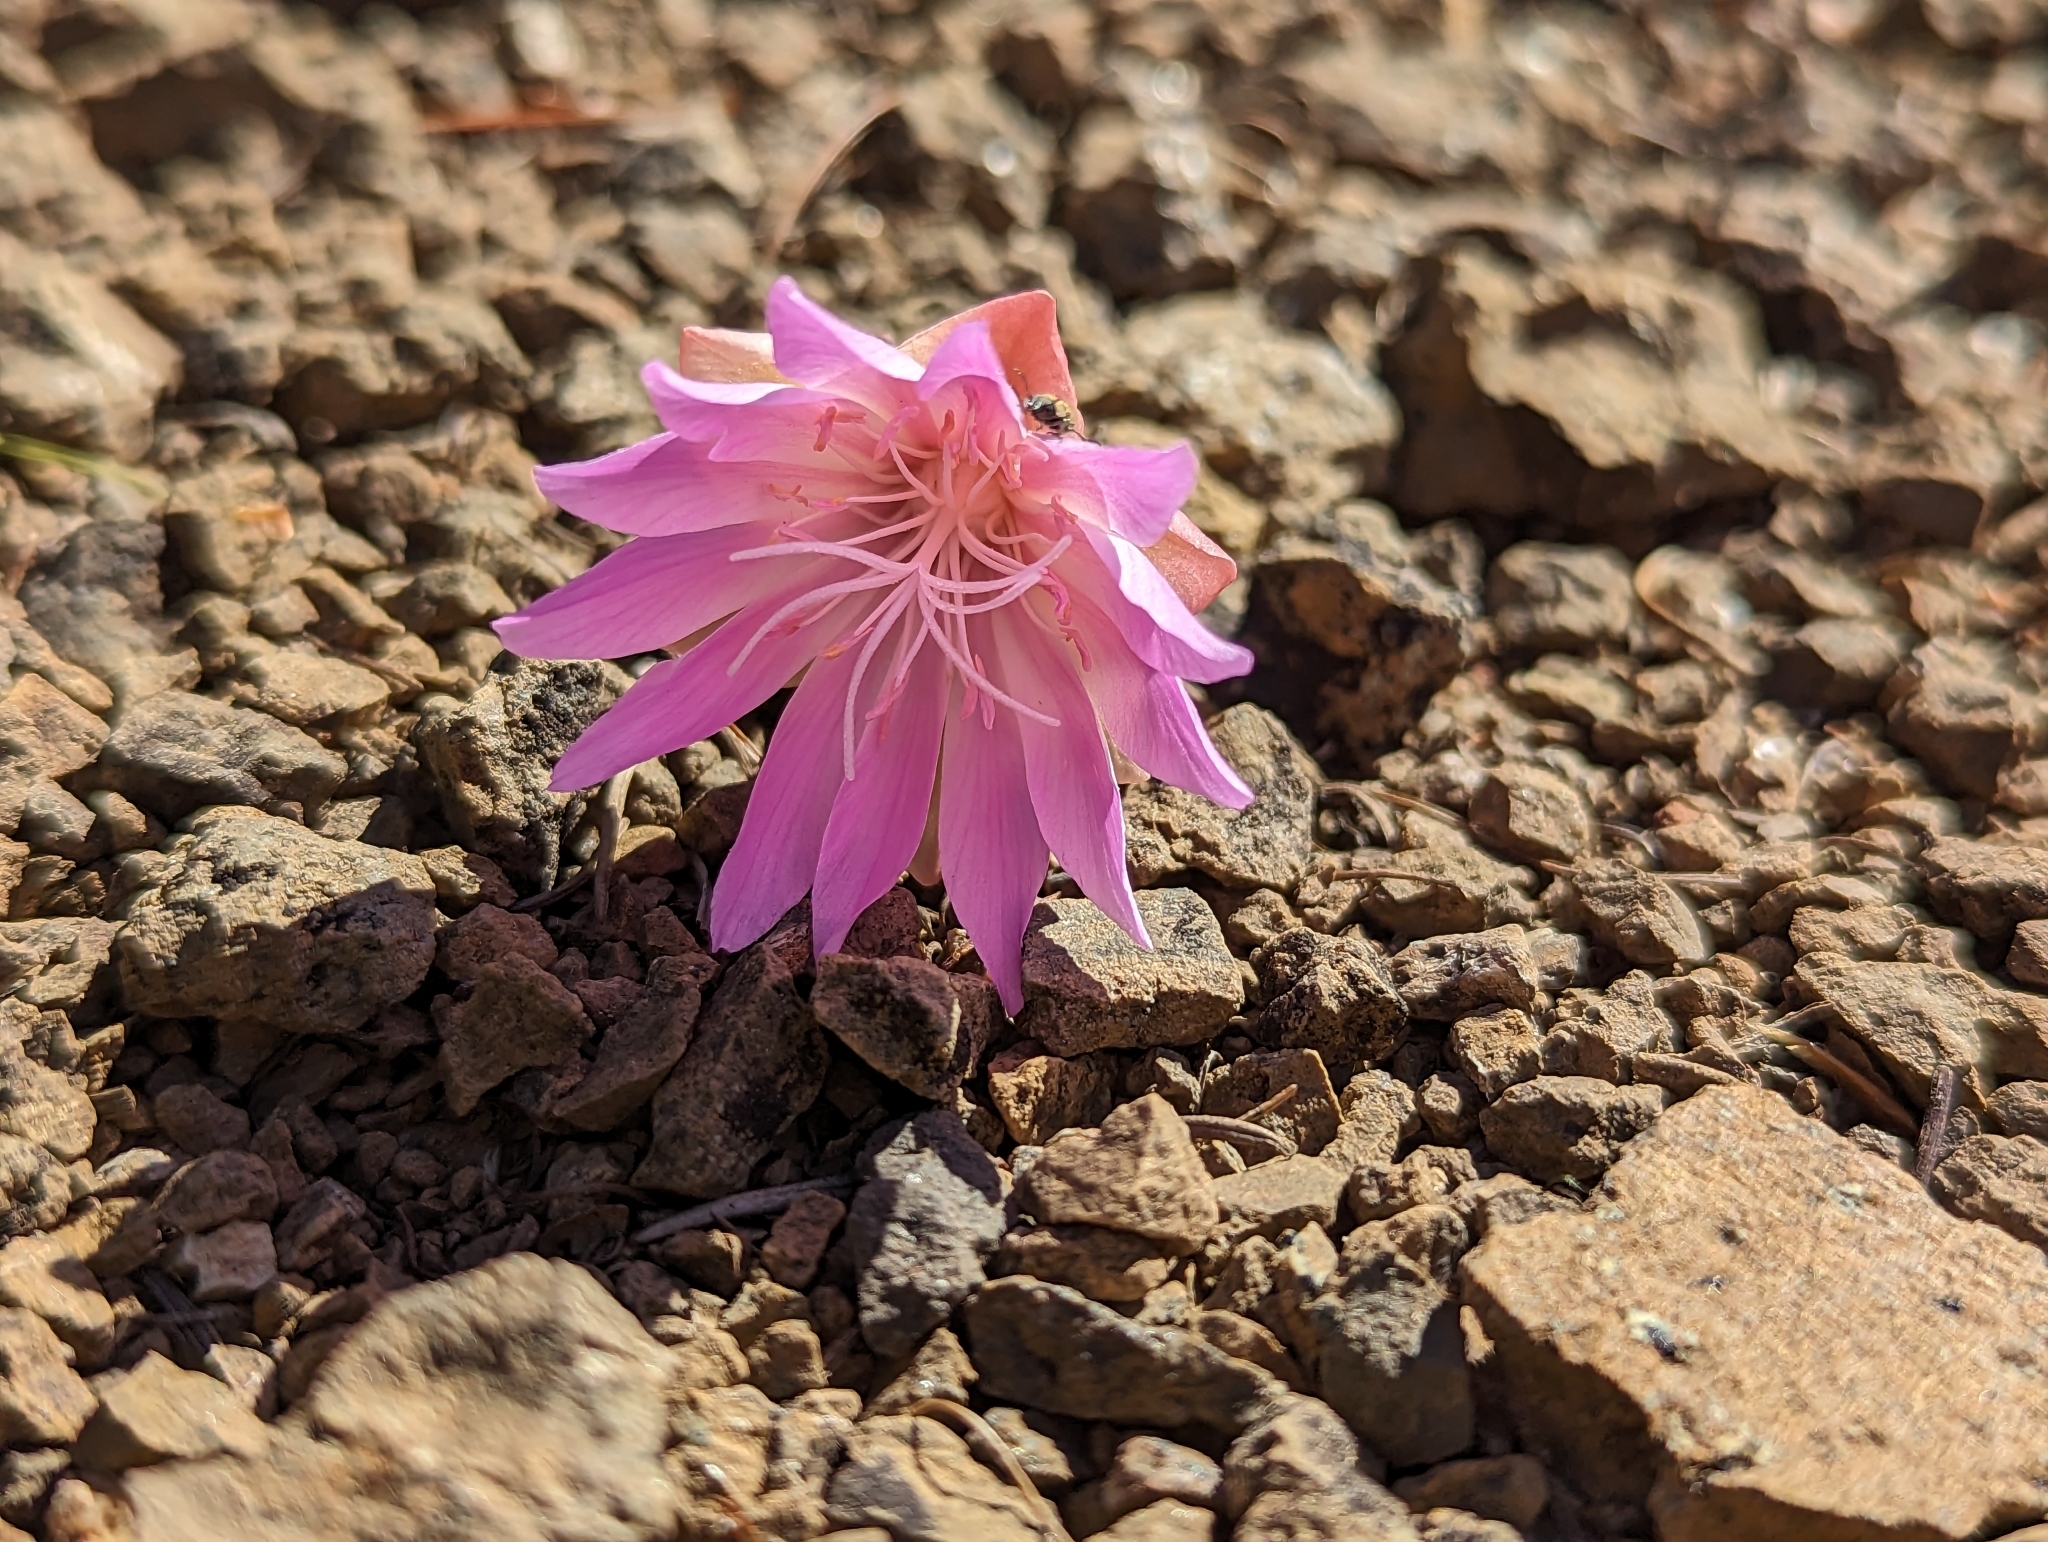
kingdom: Plantae
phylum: Tracheophyta
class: Magnoliopsida
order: Caryophyllales
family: Montiaceae
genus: Lewisia
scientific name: Lewisia rediviva
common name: Bitter-root
